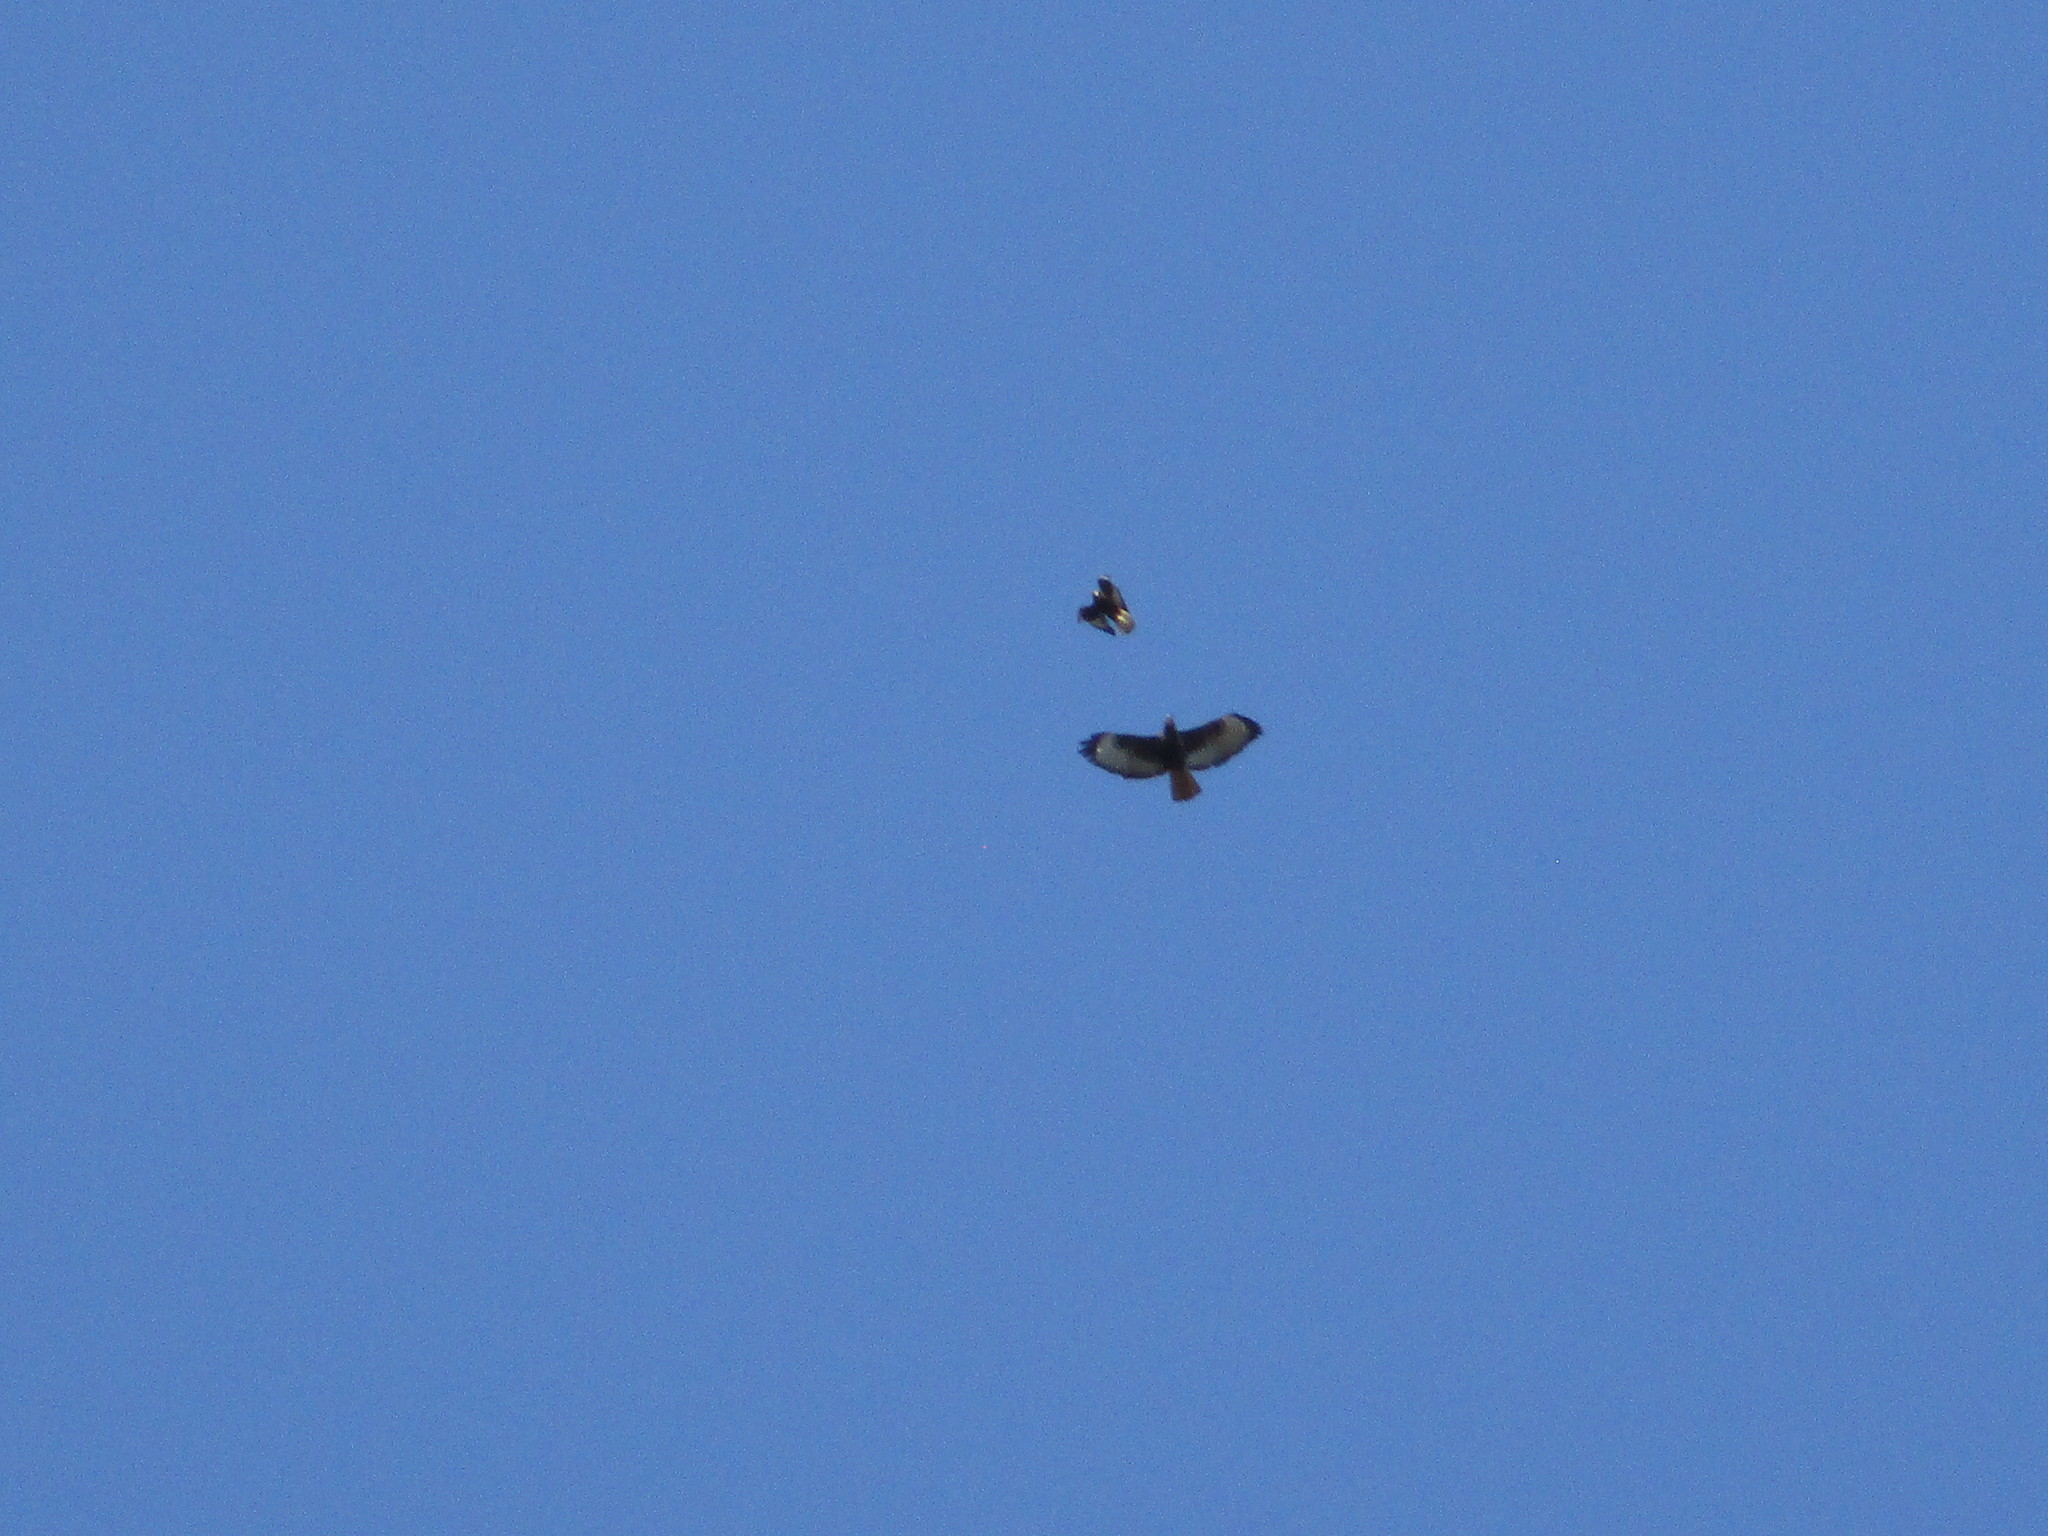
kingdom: Animalia
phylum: Chordata
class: Aves
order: Accipitriformes
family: Cathartidae
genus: Cathartes
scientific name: Cathartes aura
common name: Turkey vulture
